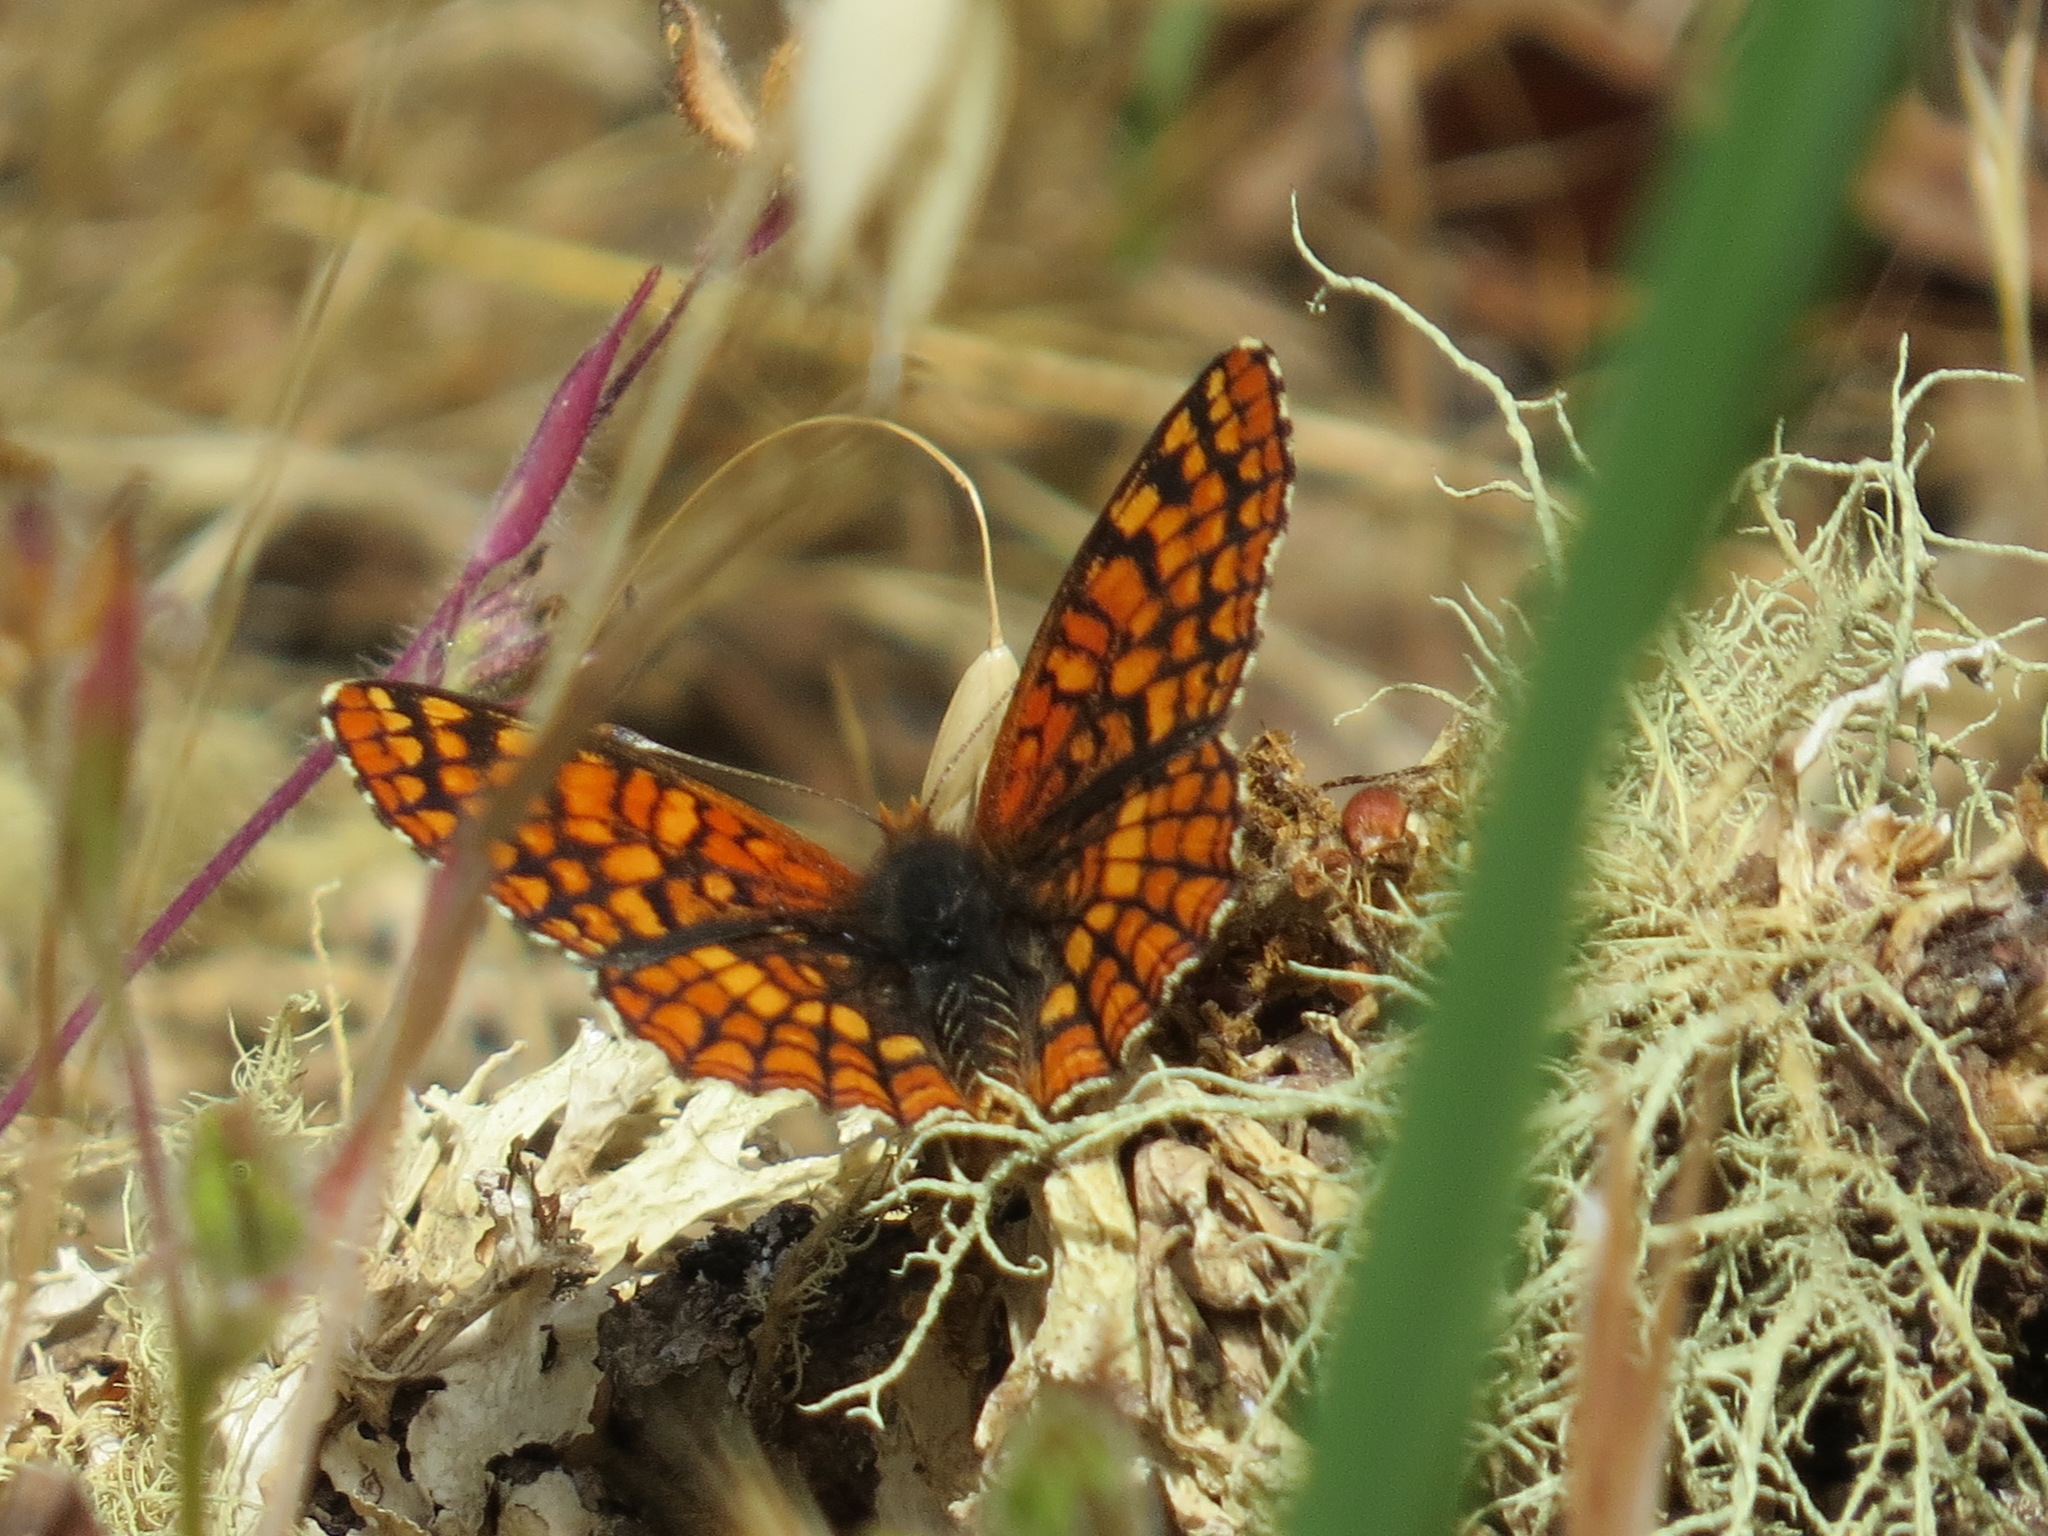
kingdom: Animalia
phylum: Arthropoda
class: Insecta
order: Lepidoptera
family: Nymphalidae
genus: Chlosyne
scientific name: Chlosyne palla
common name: Northern checkerspot
